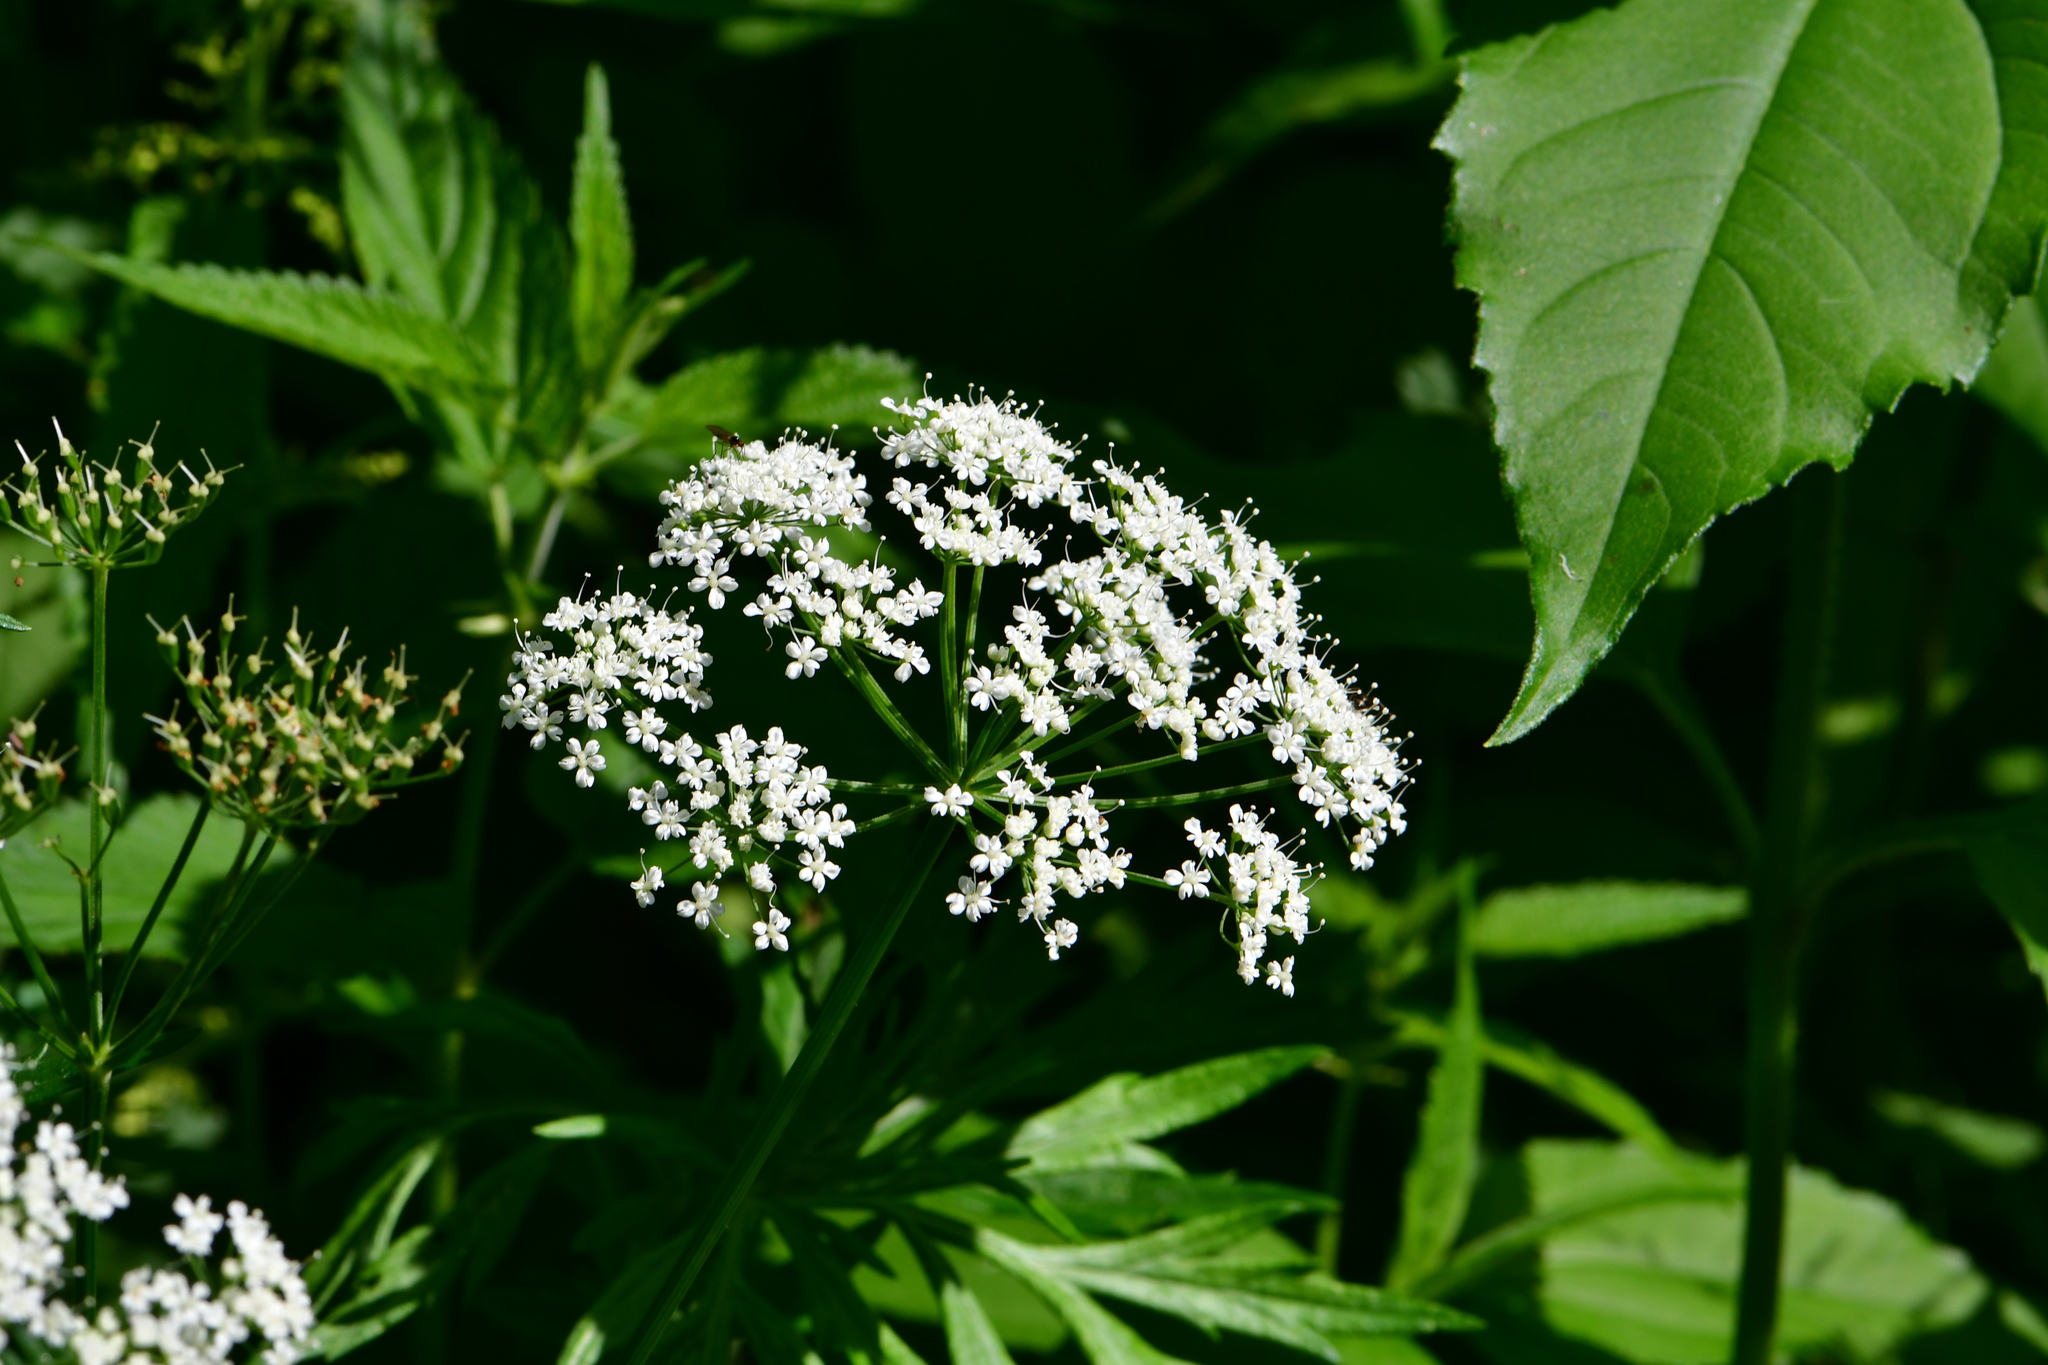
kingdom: Plantae
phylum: Tracheophyta
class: Magnoliopsida
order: Apiales
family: Apiaceae
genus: Aegopodium
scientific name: Aegopodium podagraria
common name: Ground-elder
